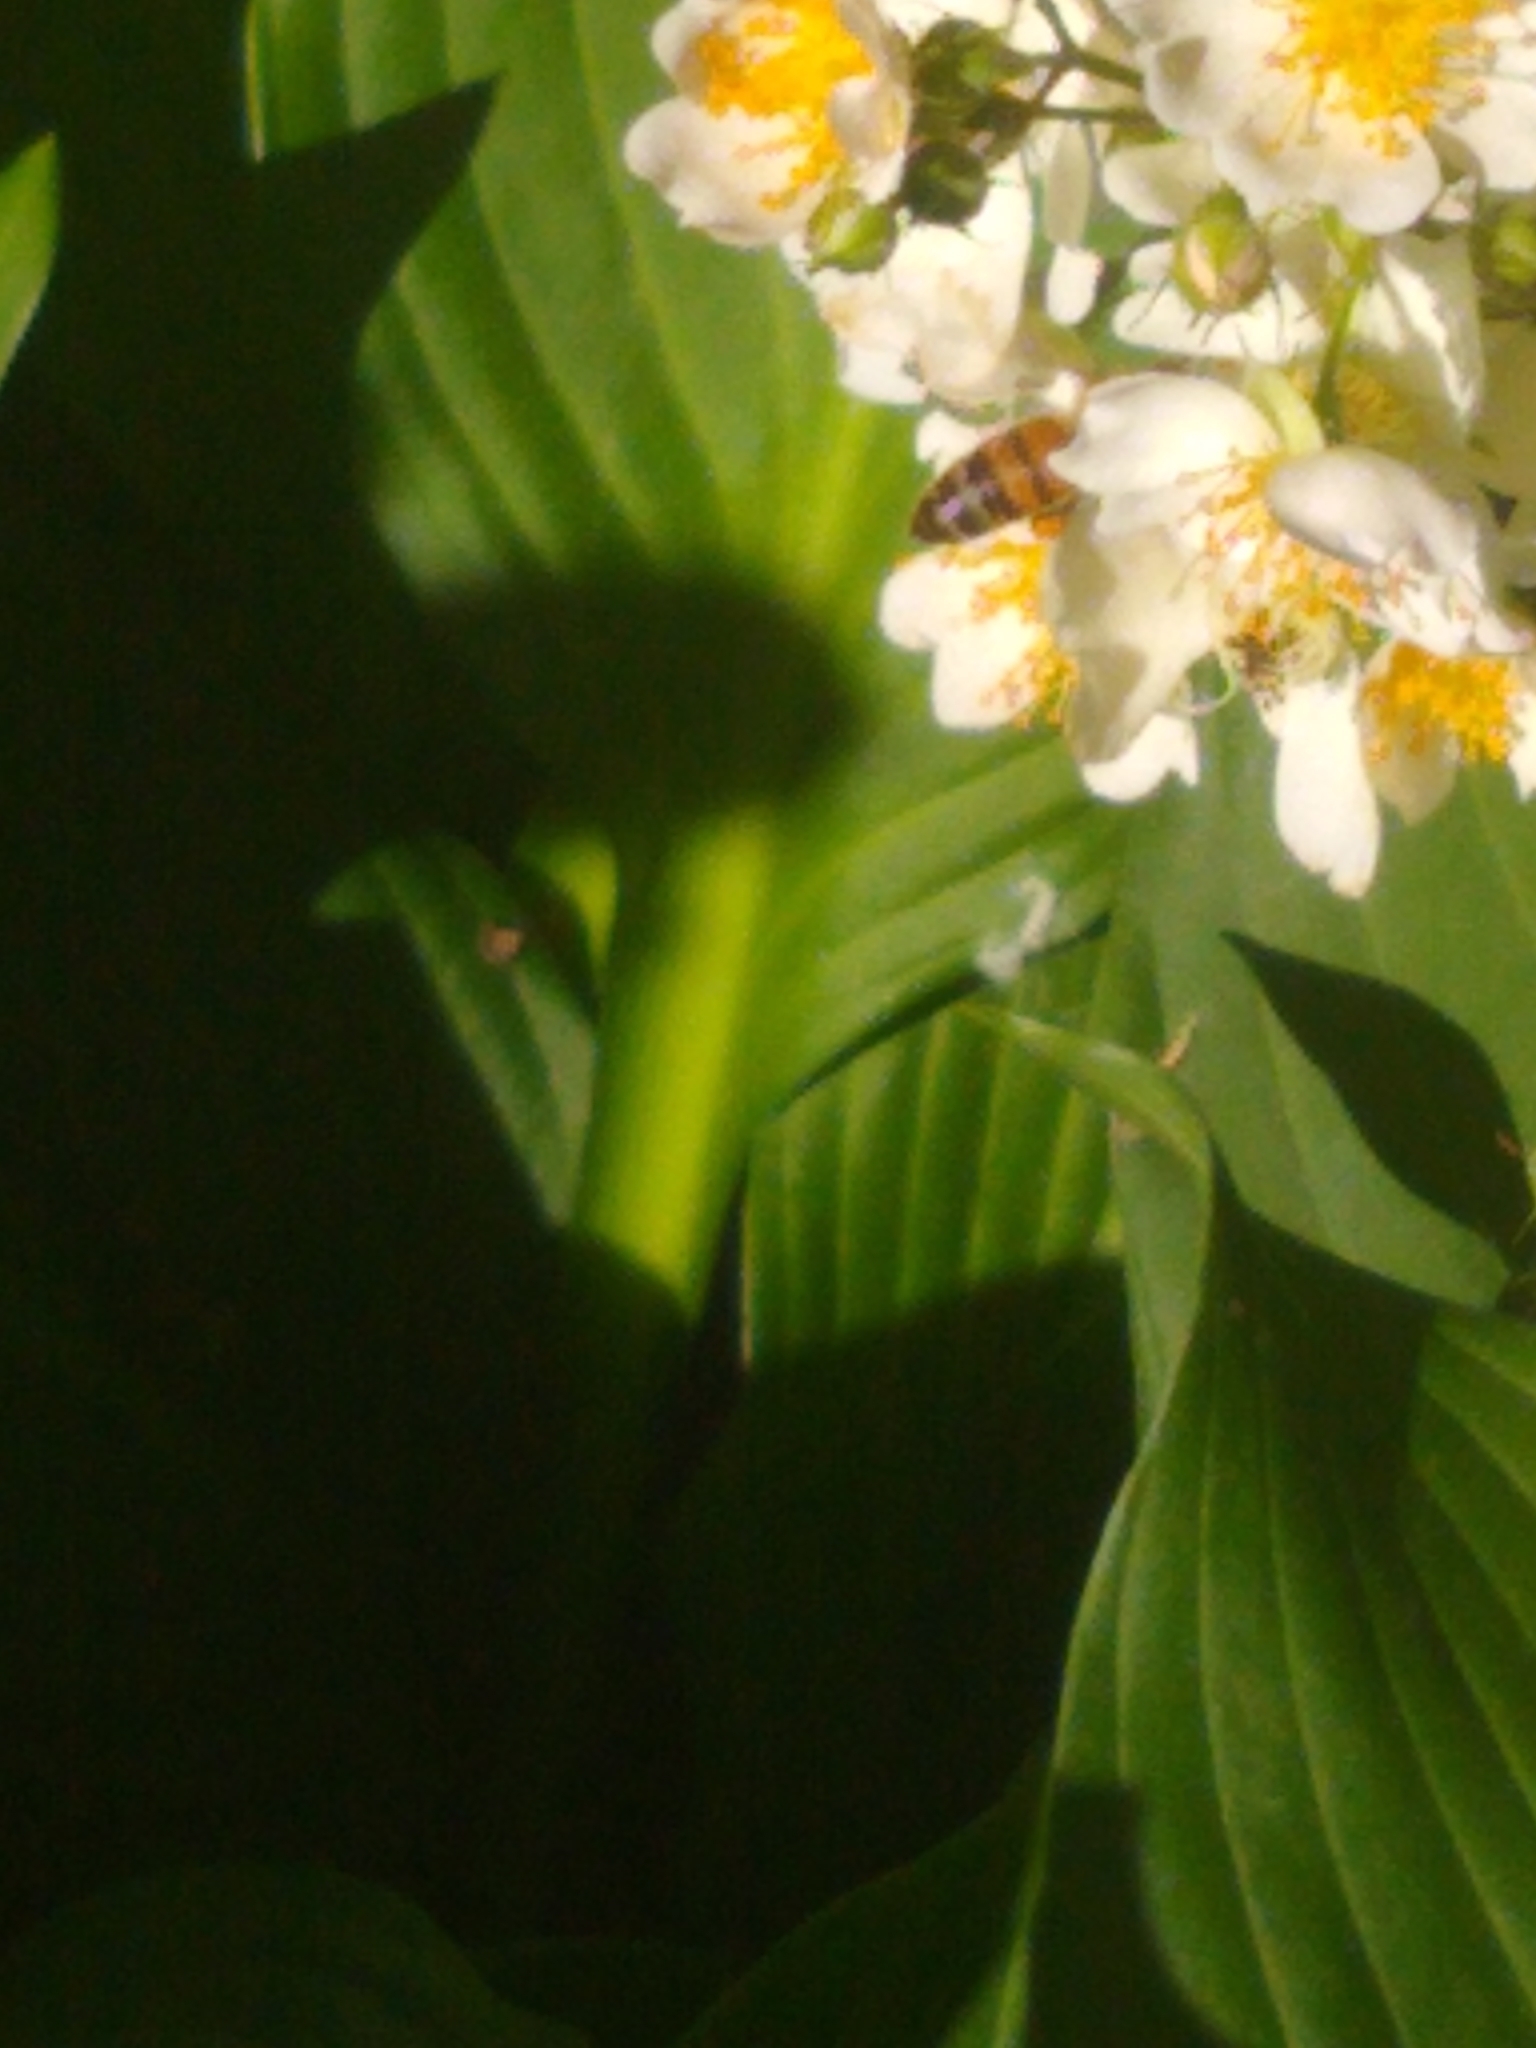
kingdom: Animalia
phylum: Arthropoda
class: Insecta
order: Hymenoptera
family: Apidae
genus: Apis
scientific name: Apis mellifera
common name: Honey bee
